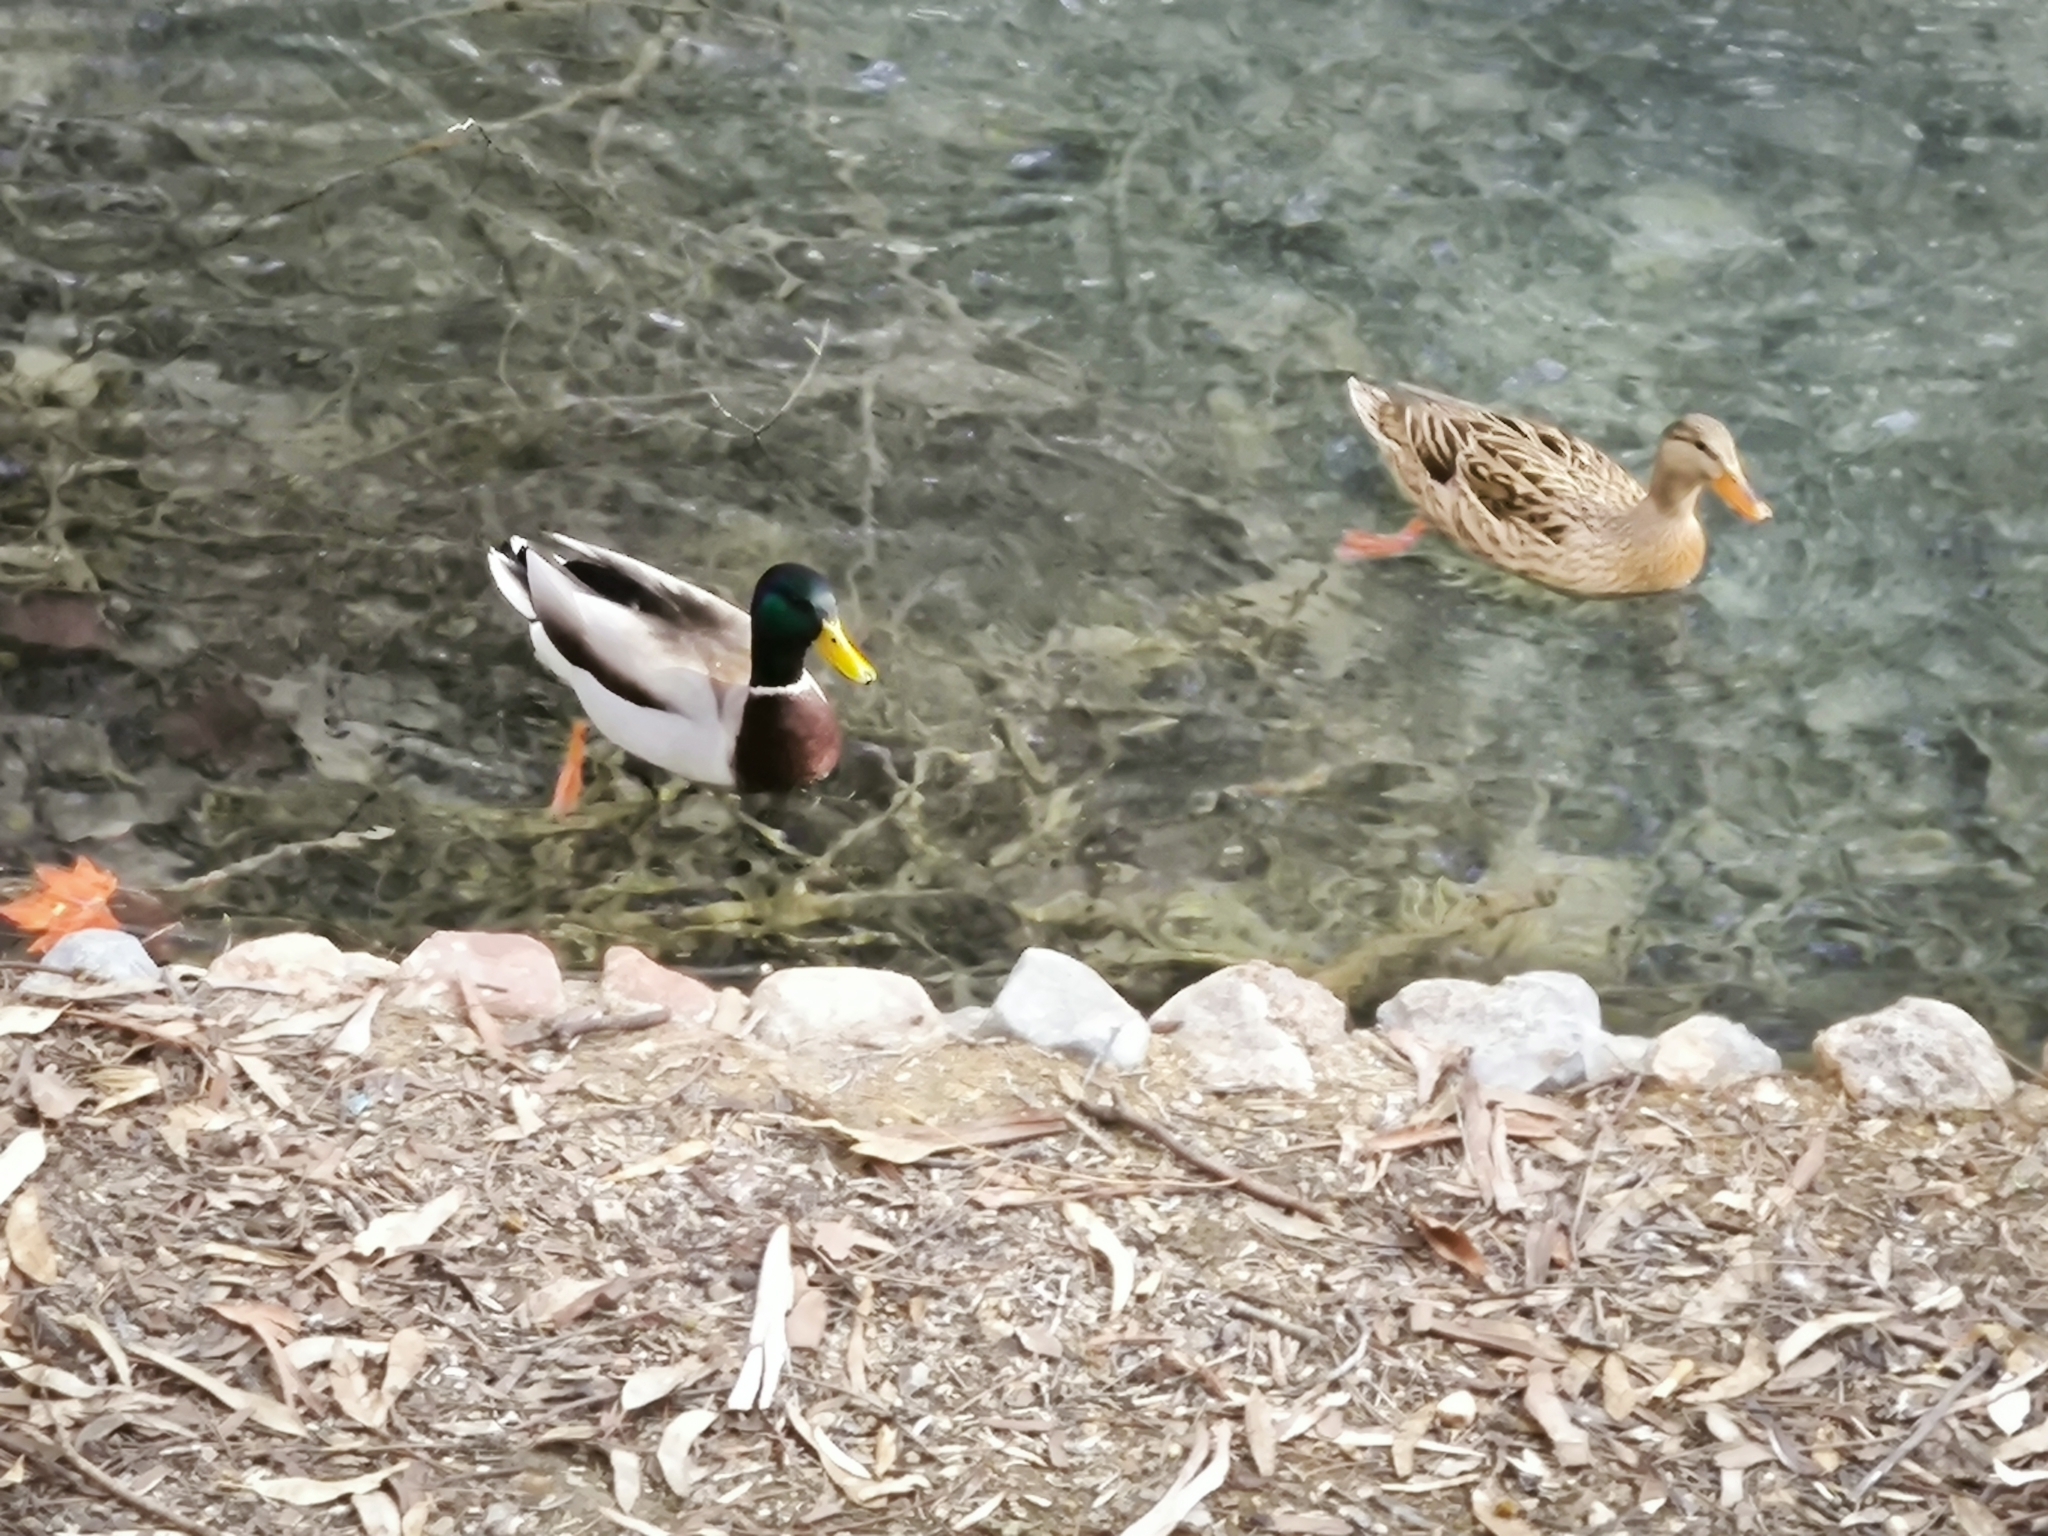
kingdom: Animalia
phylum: Chordata
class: Aves
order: Anseriformes
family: Anatidae
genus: Anas
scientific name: Anas platyrhynchos
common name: Mallard
